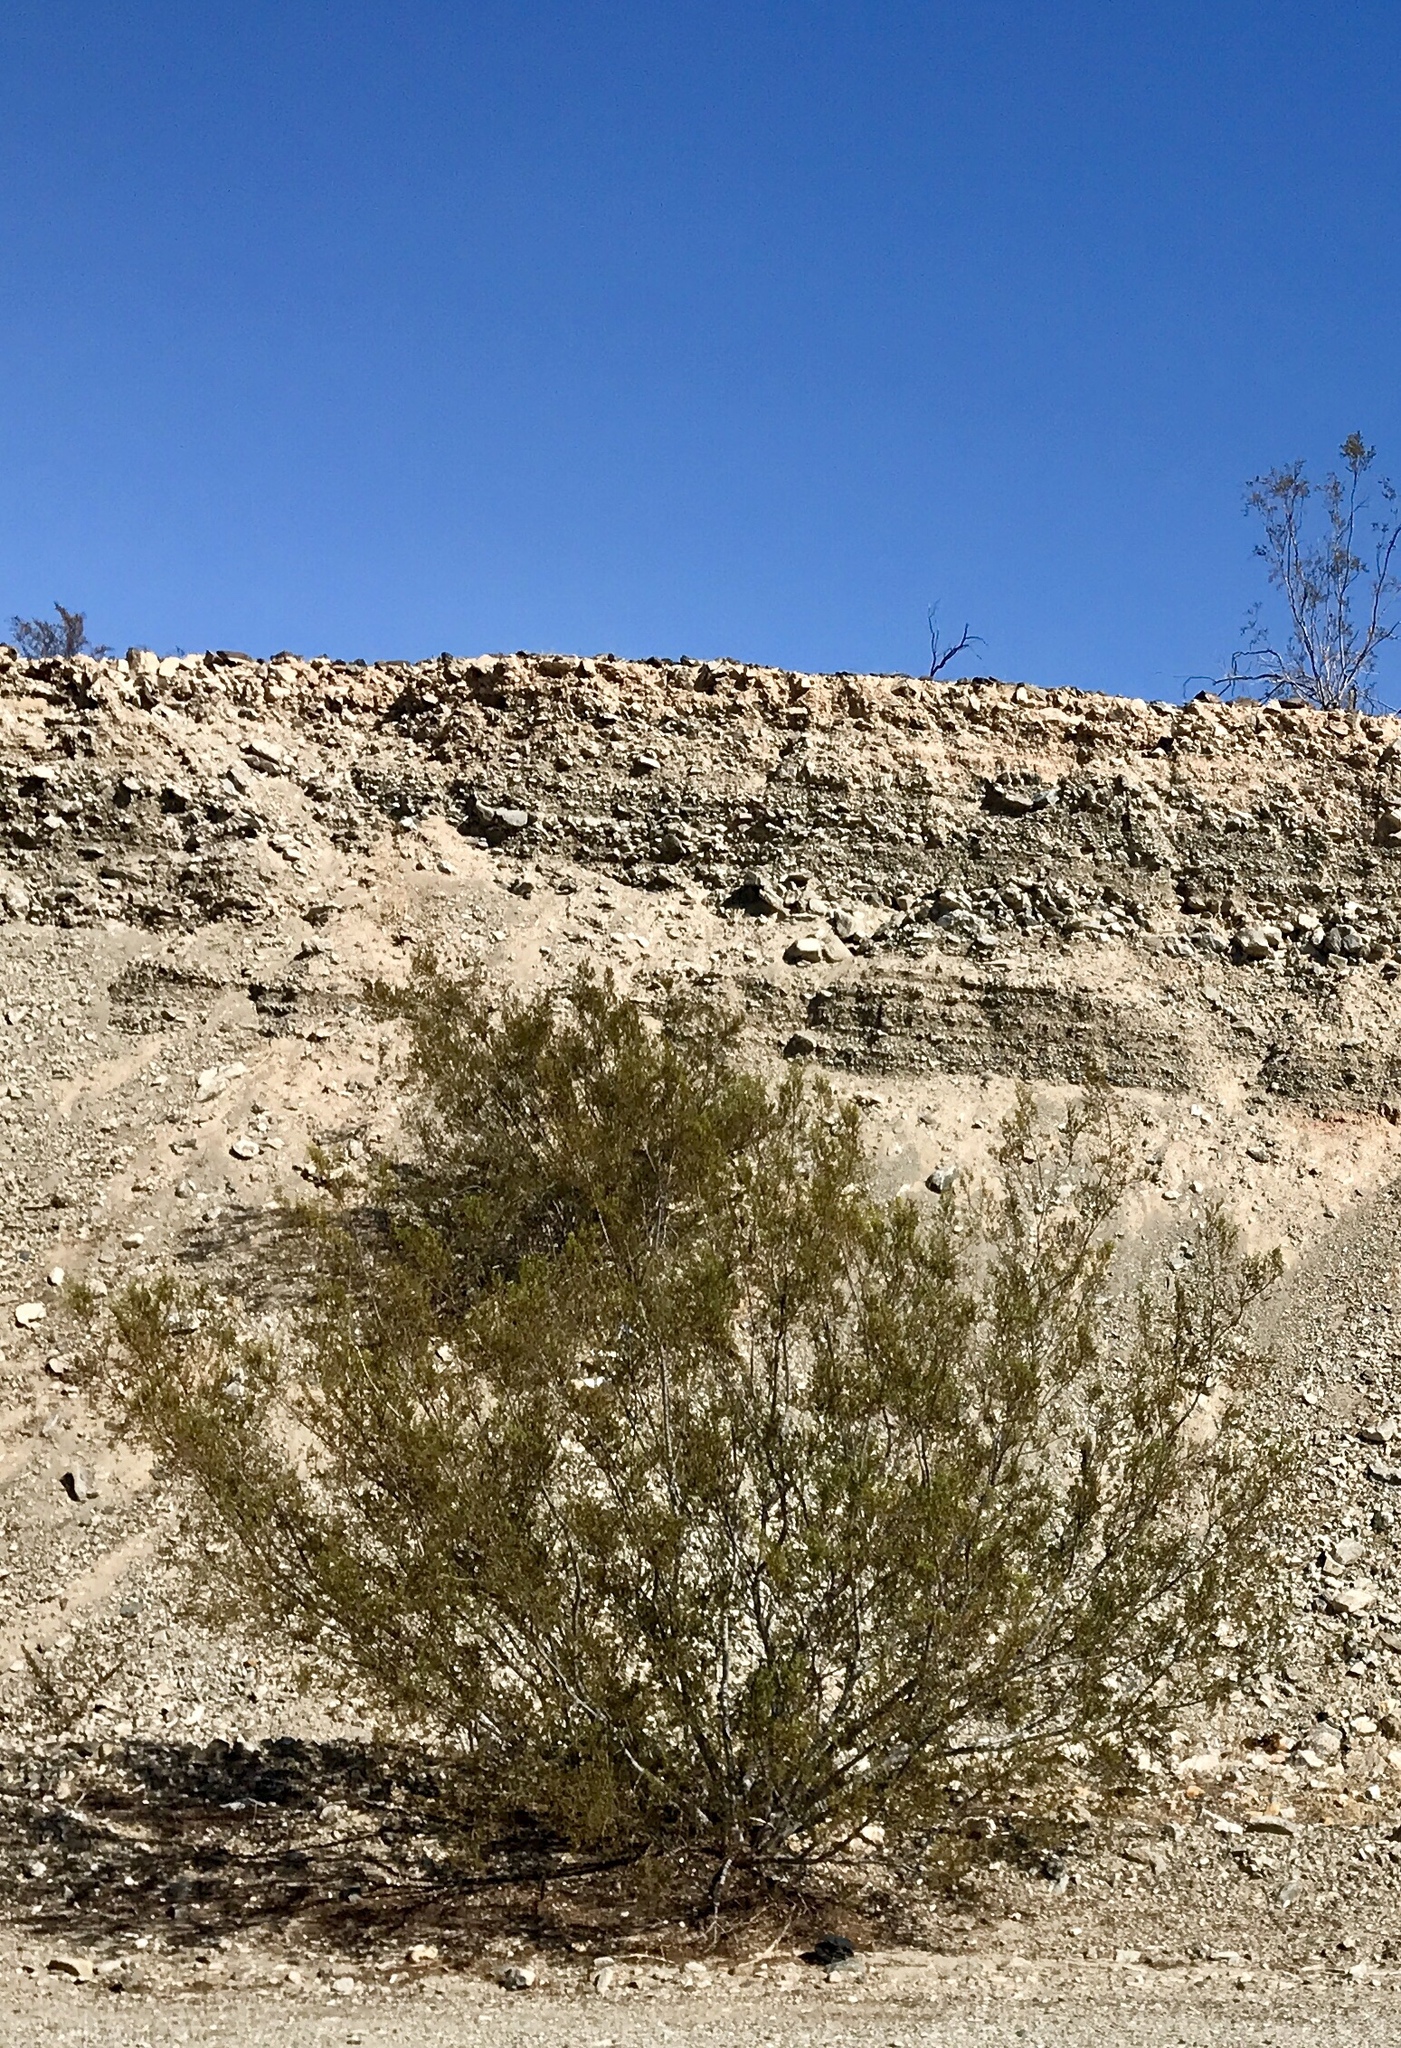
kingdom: Plantae
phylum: Tracheophyta
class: Magnoliopsida
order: Zygophyllales
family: Zygophyllaceae
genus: Larrea
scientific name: Larrea tridentata
